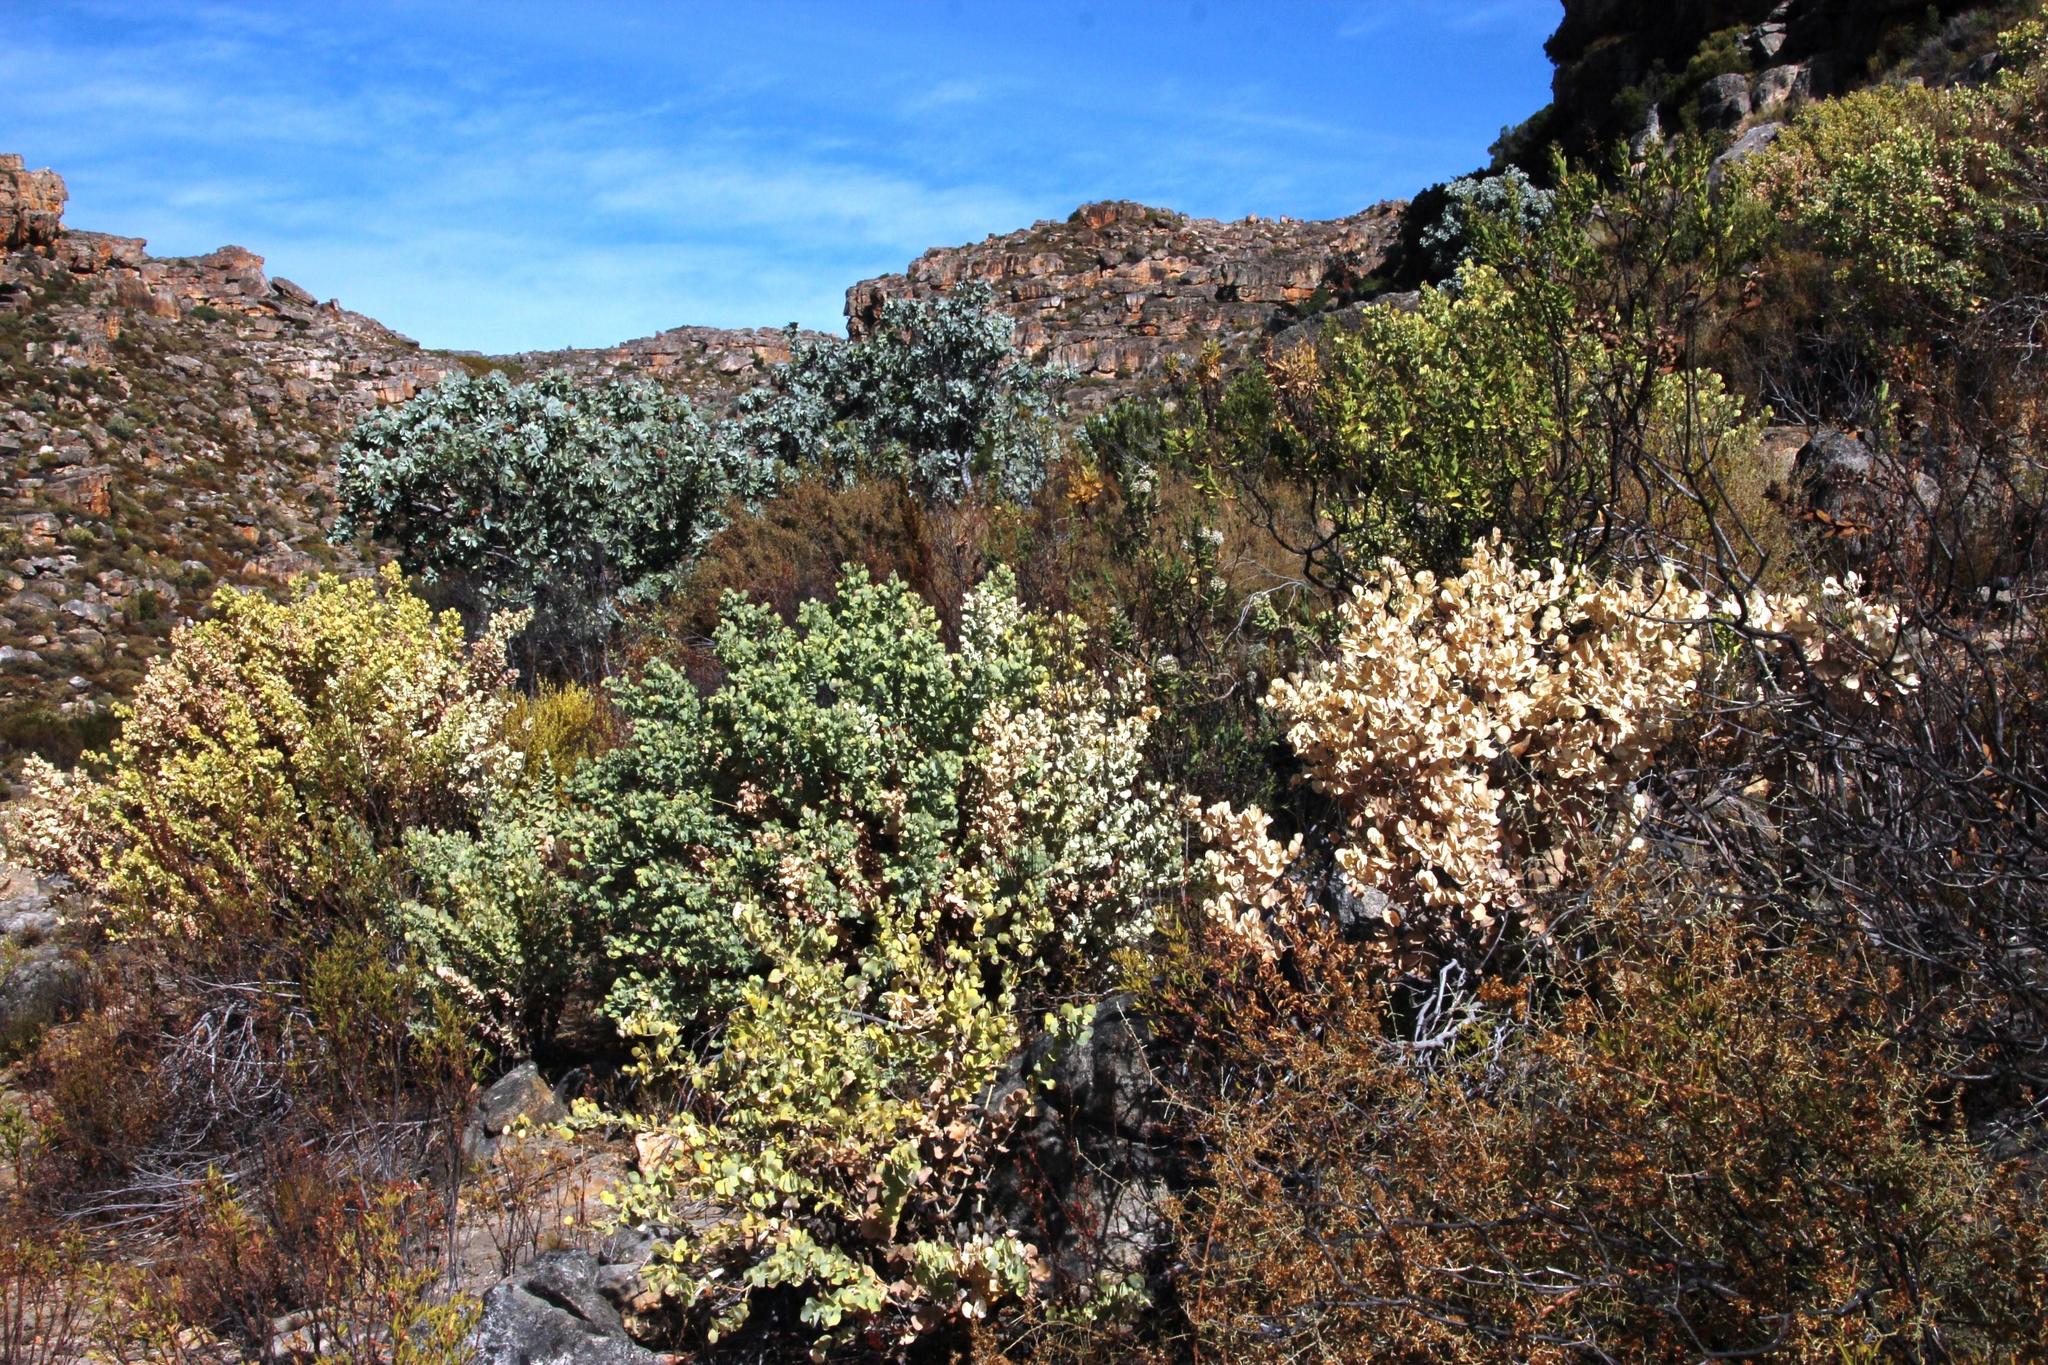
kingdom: Plantae
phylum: Tracheophyta
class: Magnoliopsida
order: Fabales
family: Fabaceae
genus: Rafnia
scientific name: Rafnia amplexicaulis
